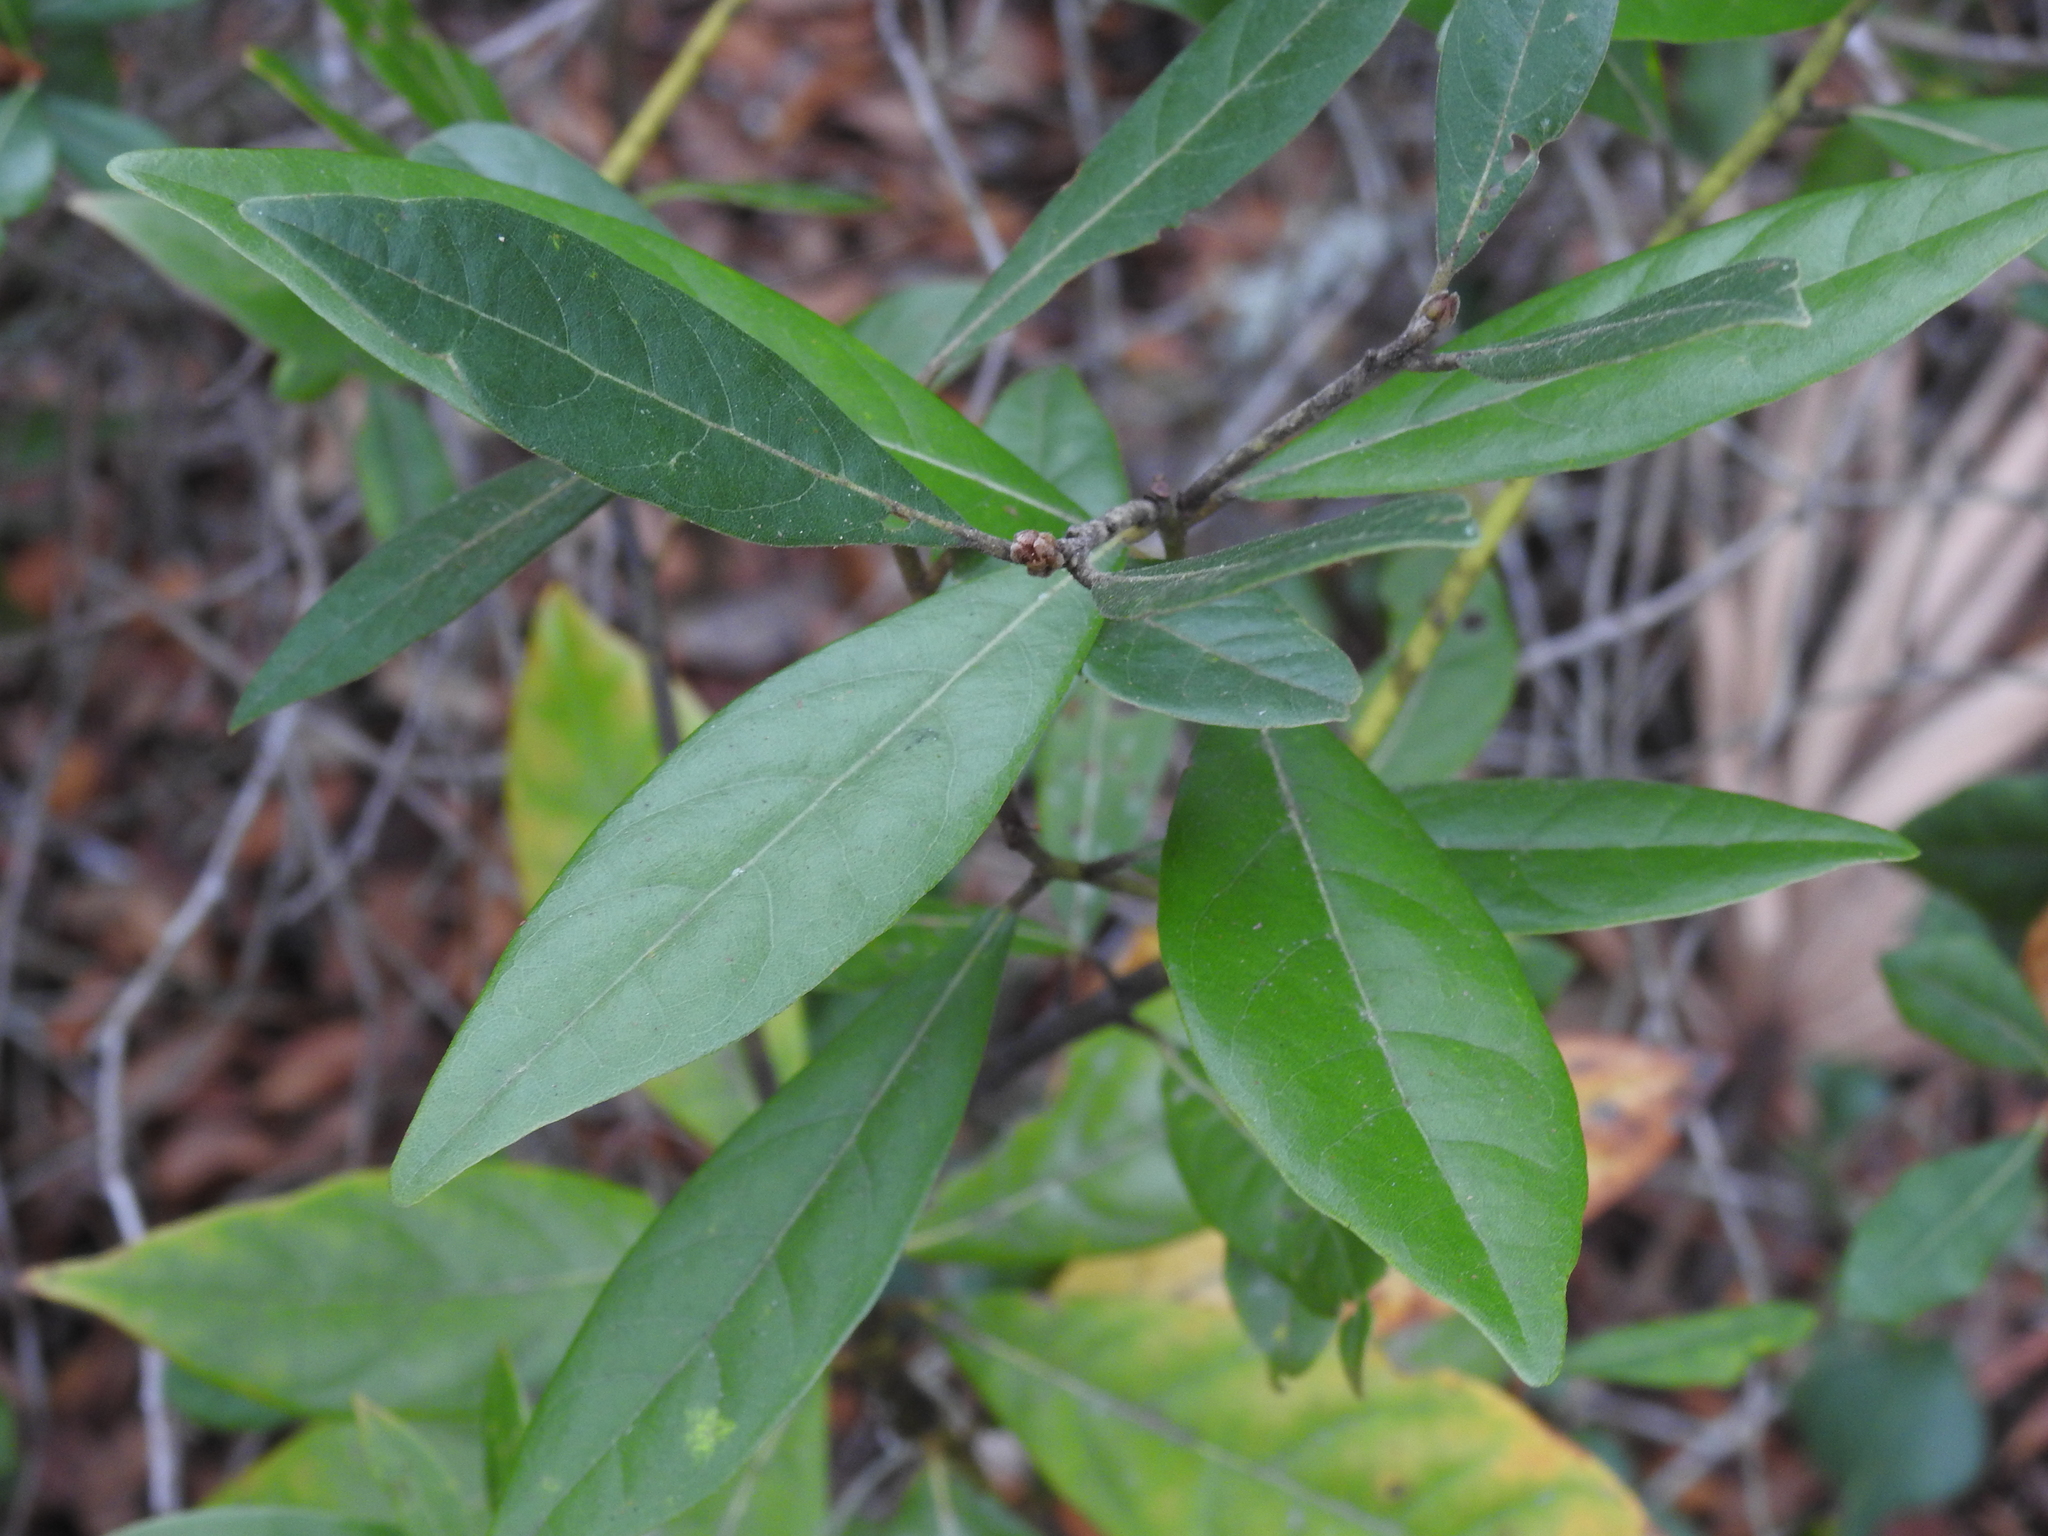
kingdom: Plantae
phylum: Tracheophyta
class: Magnoliopsida
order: Laurales
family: Lauraceae
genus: Persea
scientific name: Persea palustris
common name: Swampbay
